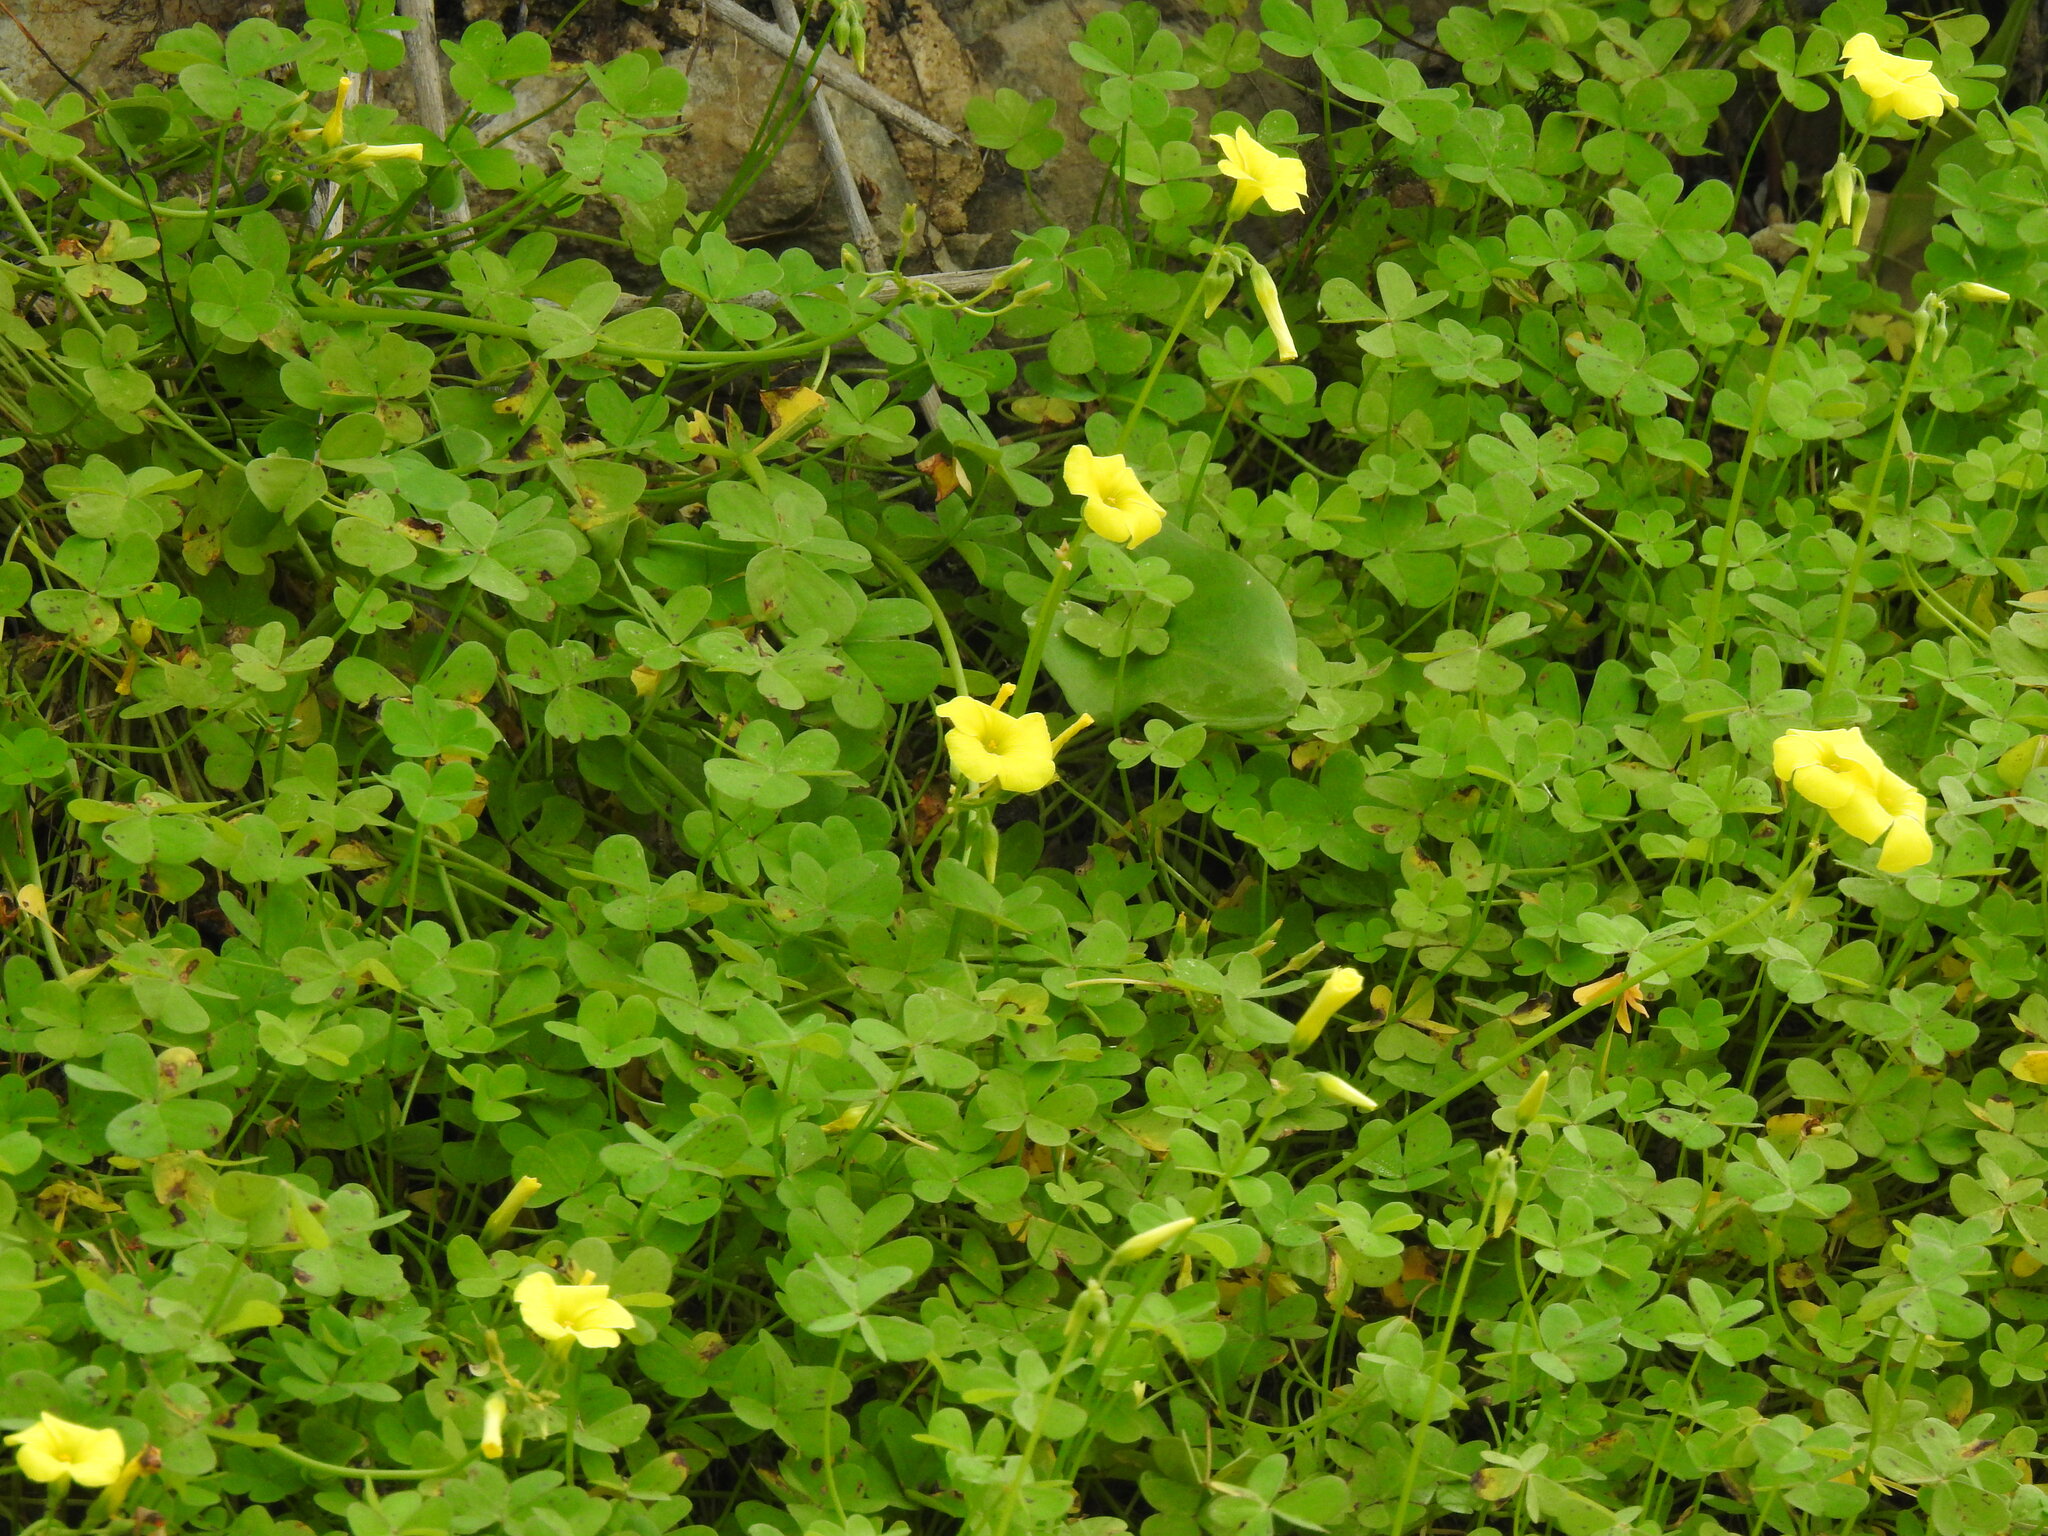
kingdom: Plantae
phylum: Tracheophyta
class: Magnoliopsida
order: Oxalidales
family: Oxalidaceae
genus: Oxalis
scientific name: Oxalis pes-caprae
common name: Bermuda-buttercup
